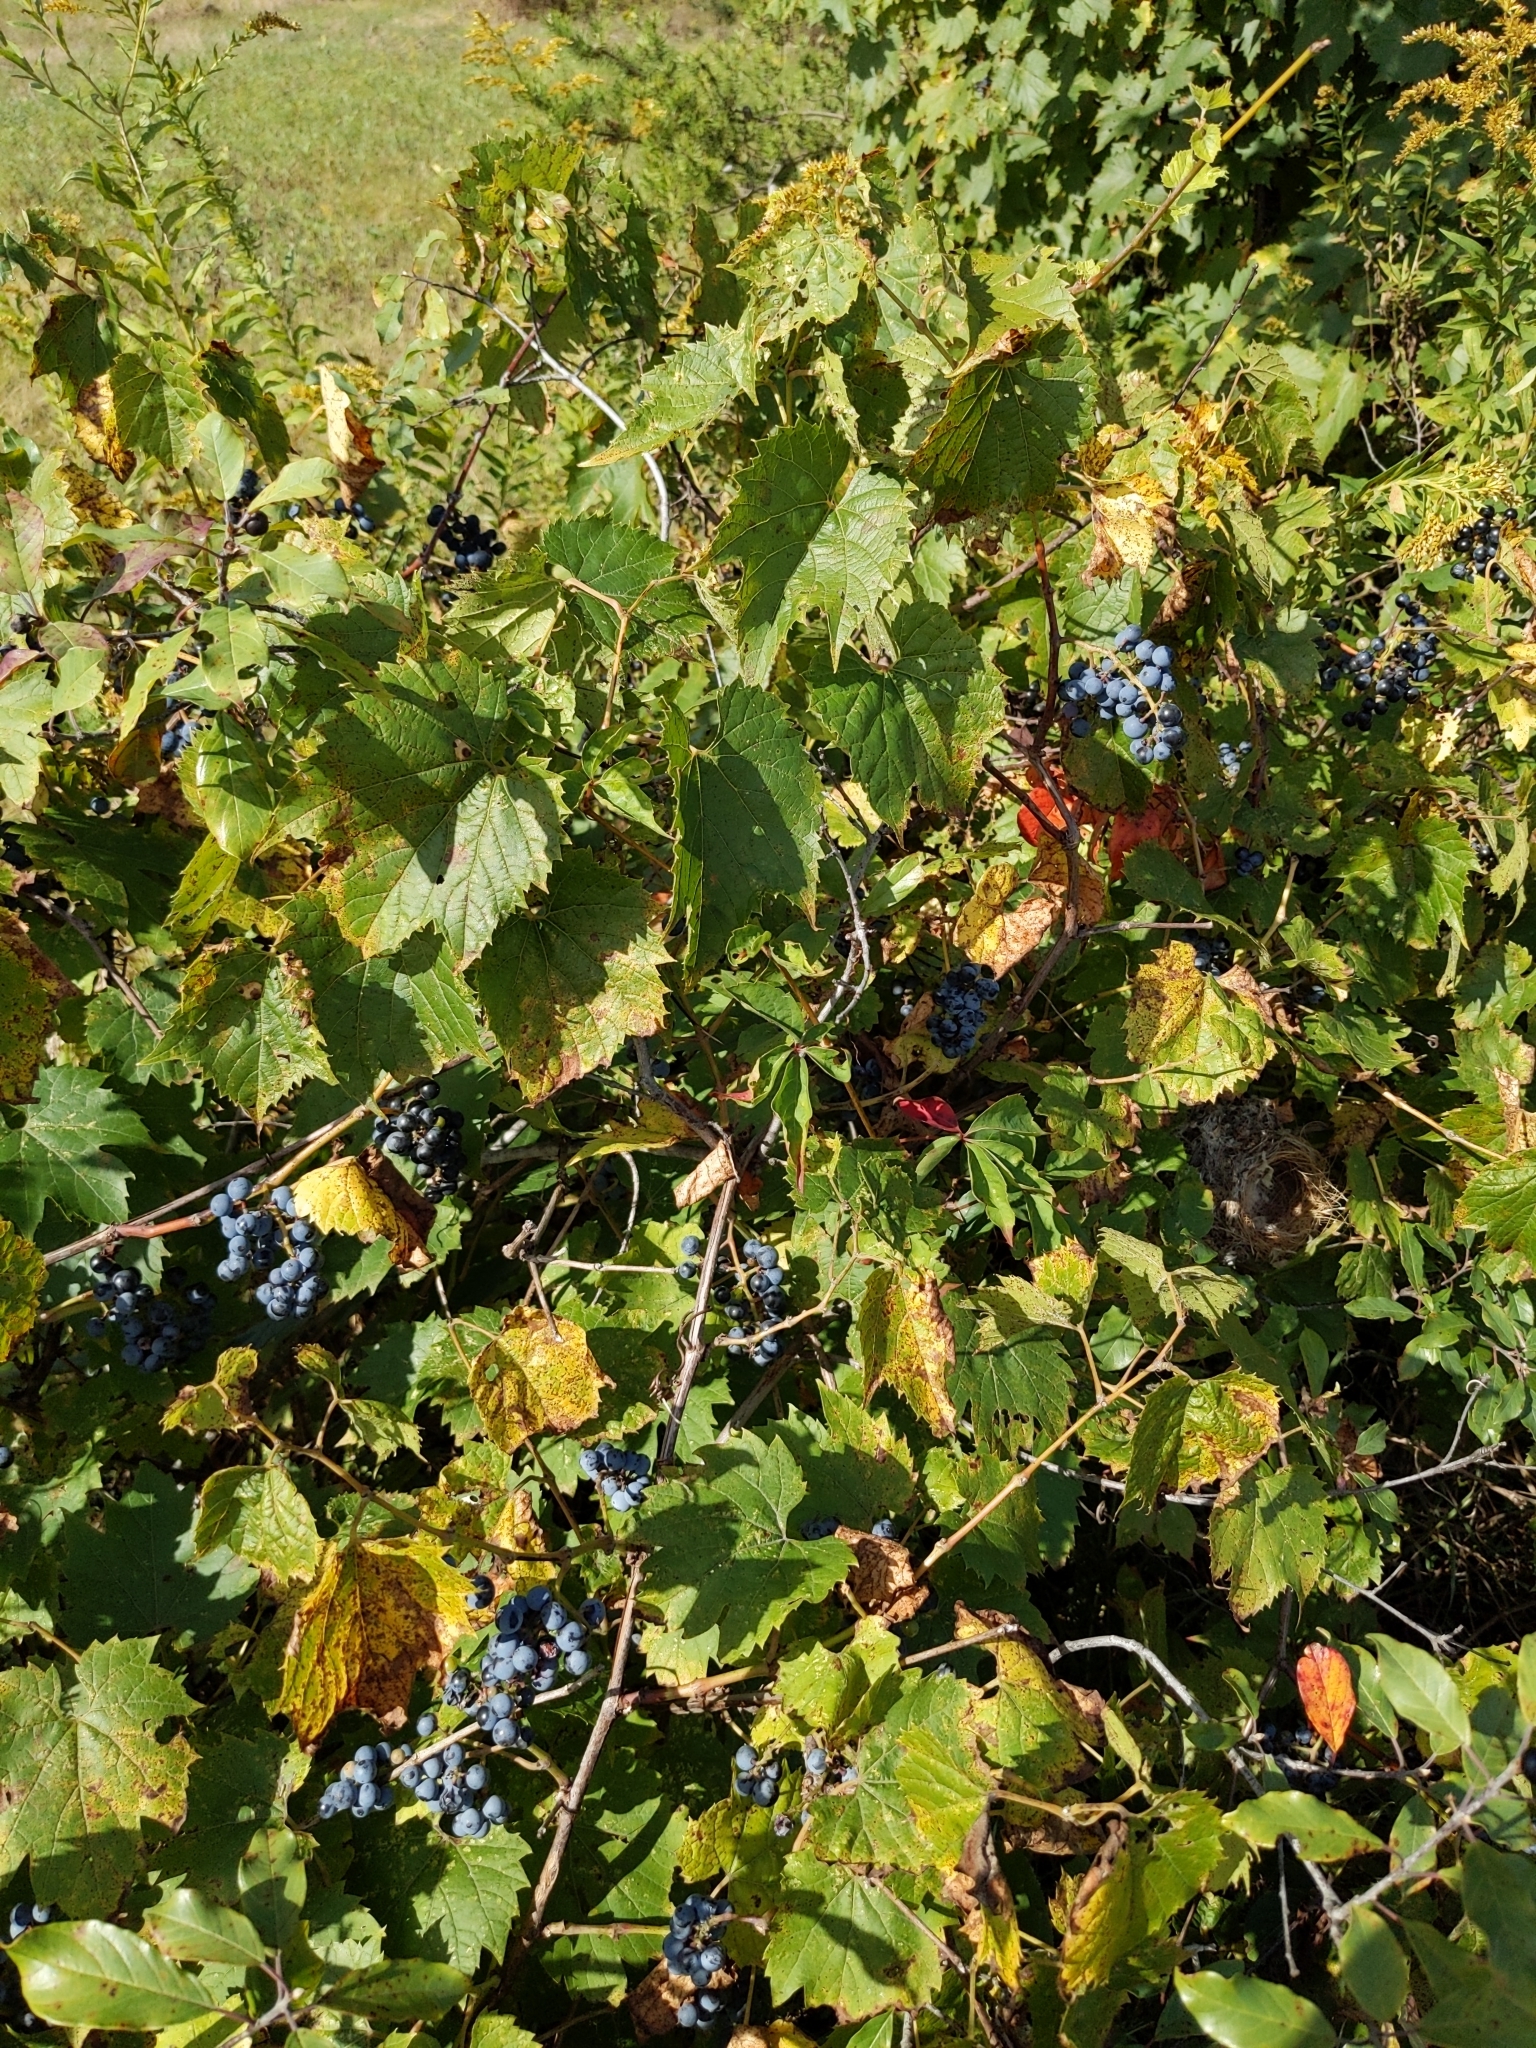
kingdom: Plantae
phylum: Tracheophyta
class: Magnoliopsida
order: Vitales
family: Vitaceae
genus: Vitis
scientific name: Vitis riparia
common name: Frost grape
